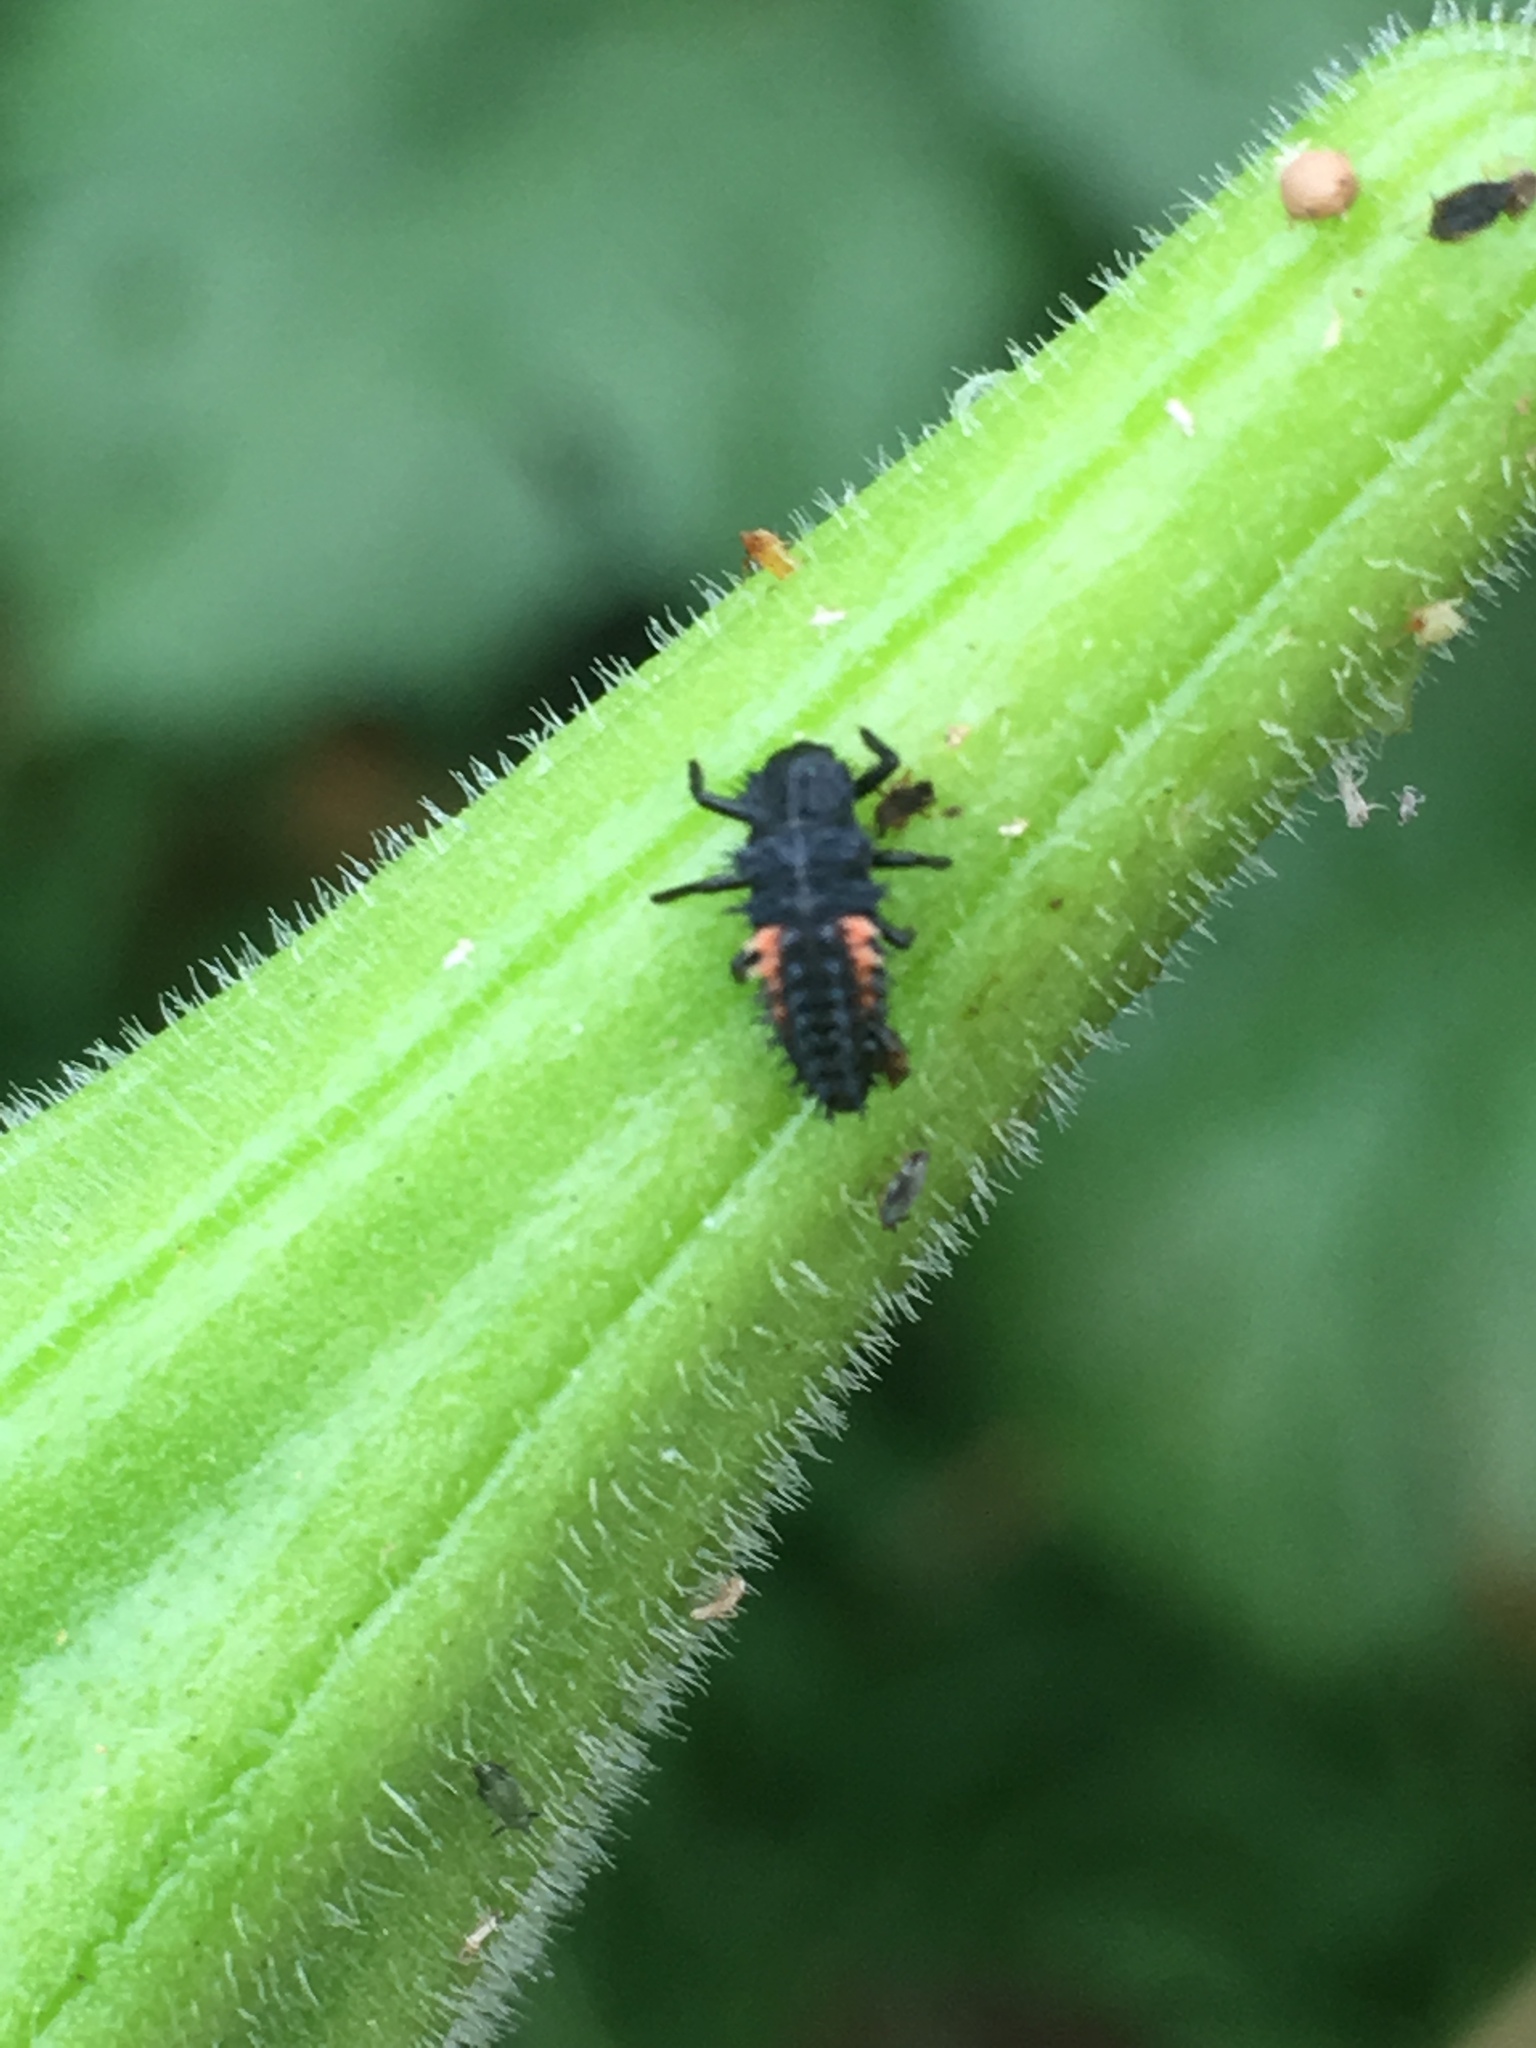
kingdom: Animalia
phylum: Arthropoda
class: Insecta
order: Coleoptera
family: Coccinellidae
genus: Harmonia
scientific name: Harmonia axyridis
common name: Harlequin ladybird
